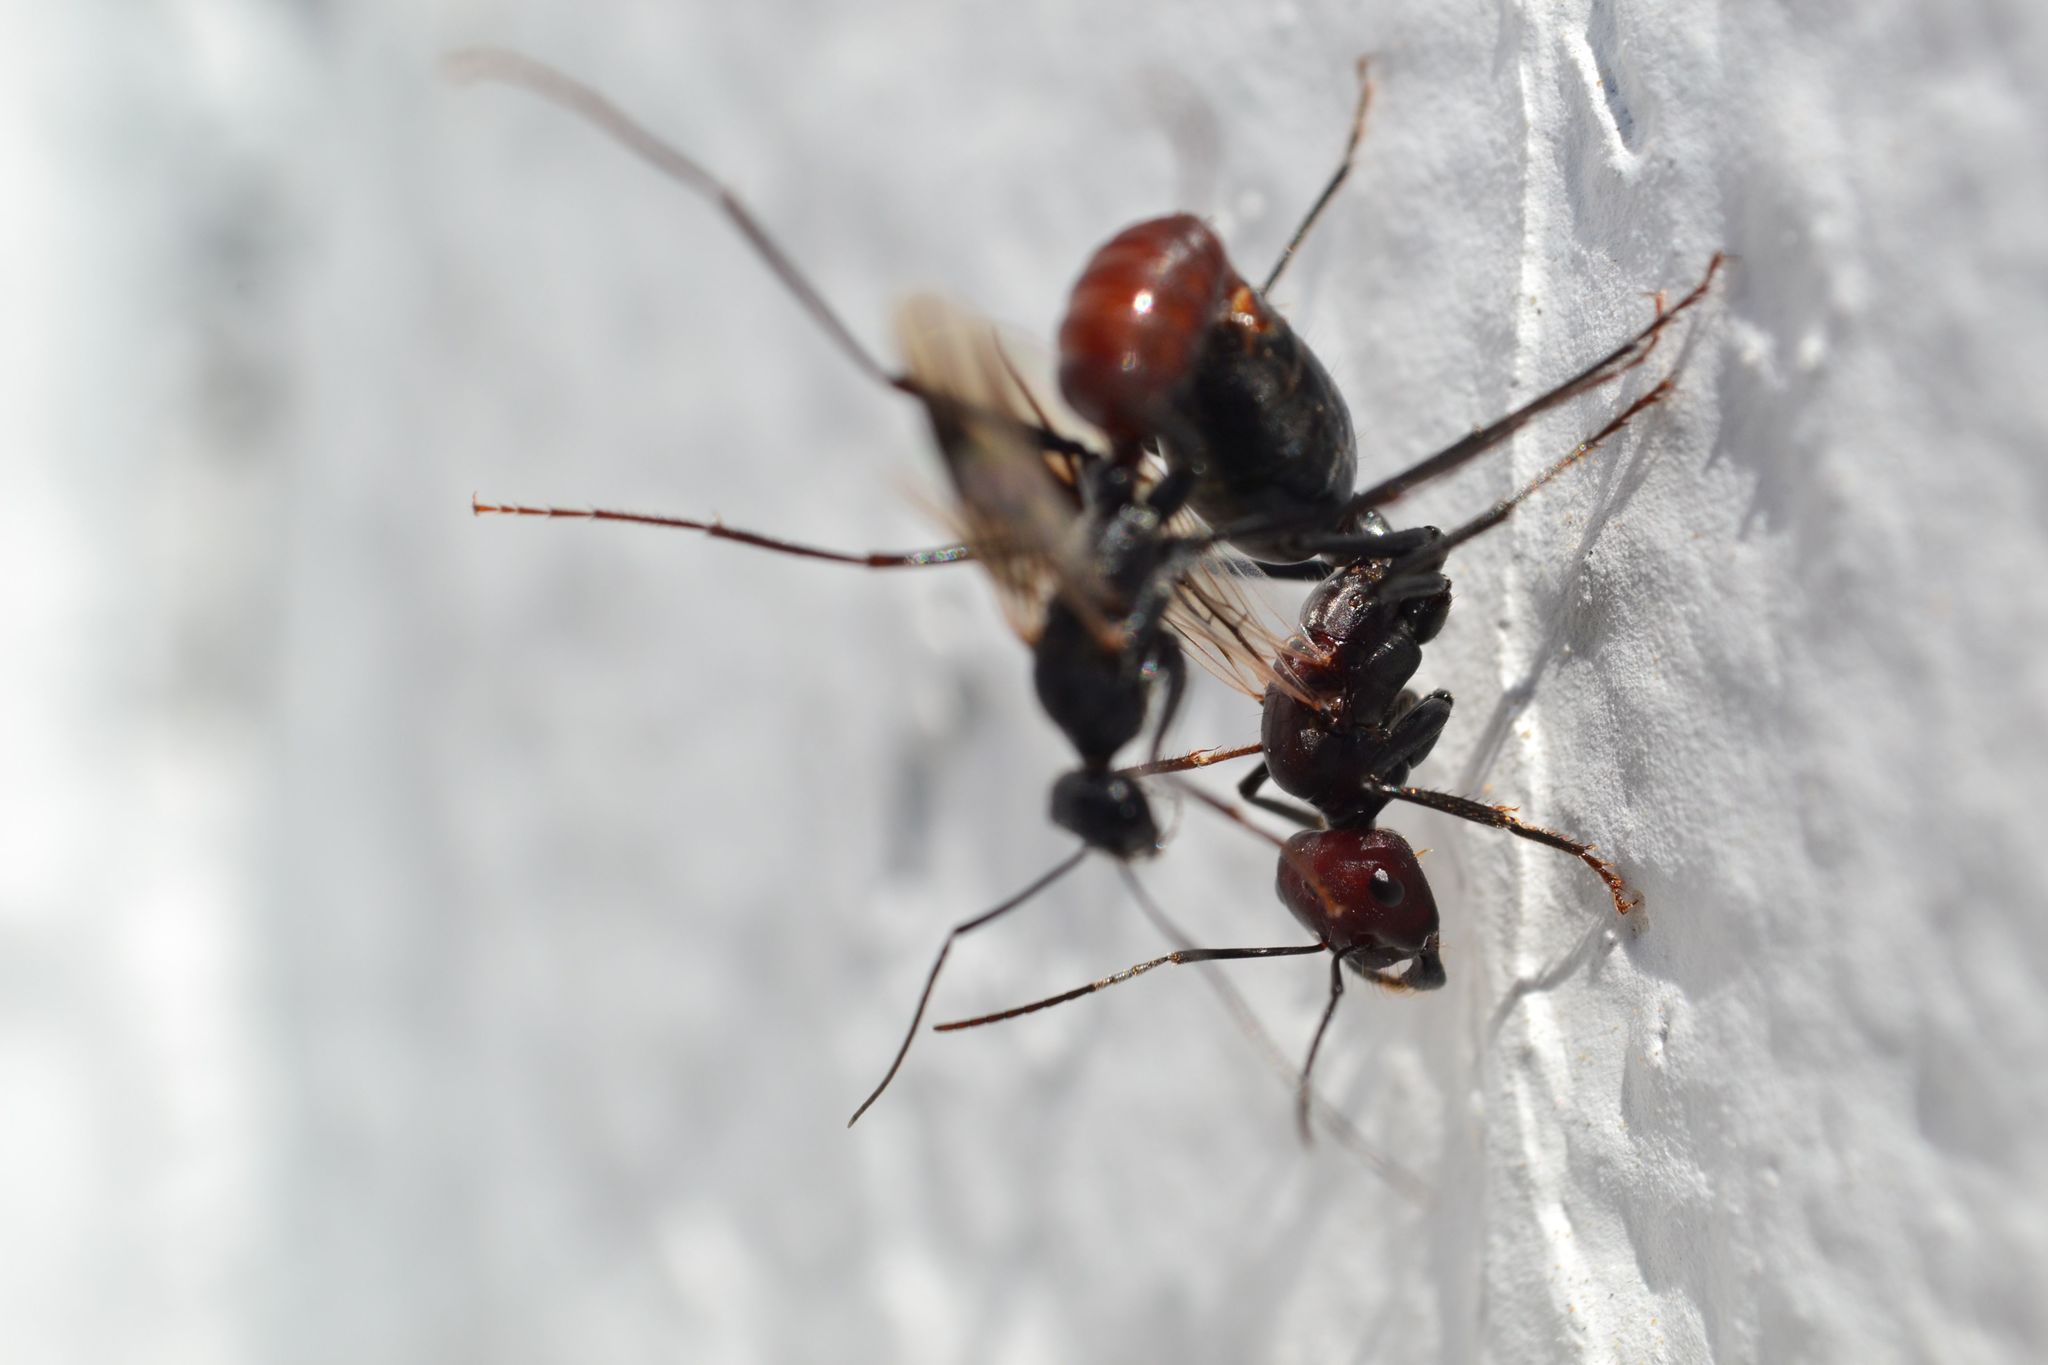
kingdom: Animalia
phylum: Arthropoda
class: Insecta
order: Hymenoptera
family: Formicidae
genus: Cataglyphis
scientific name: Cataglyphis savignyi
